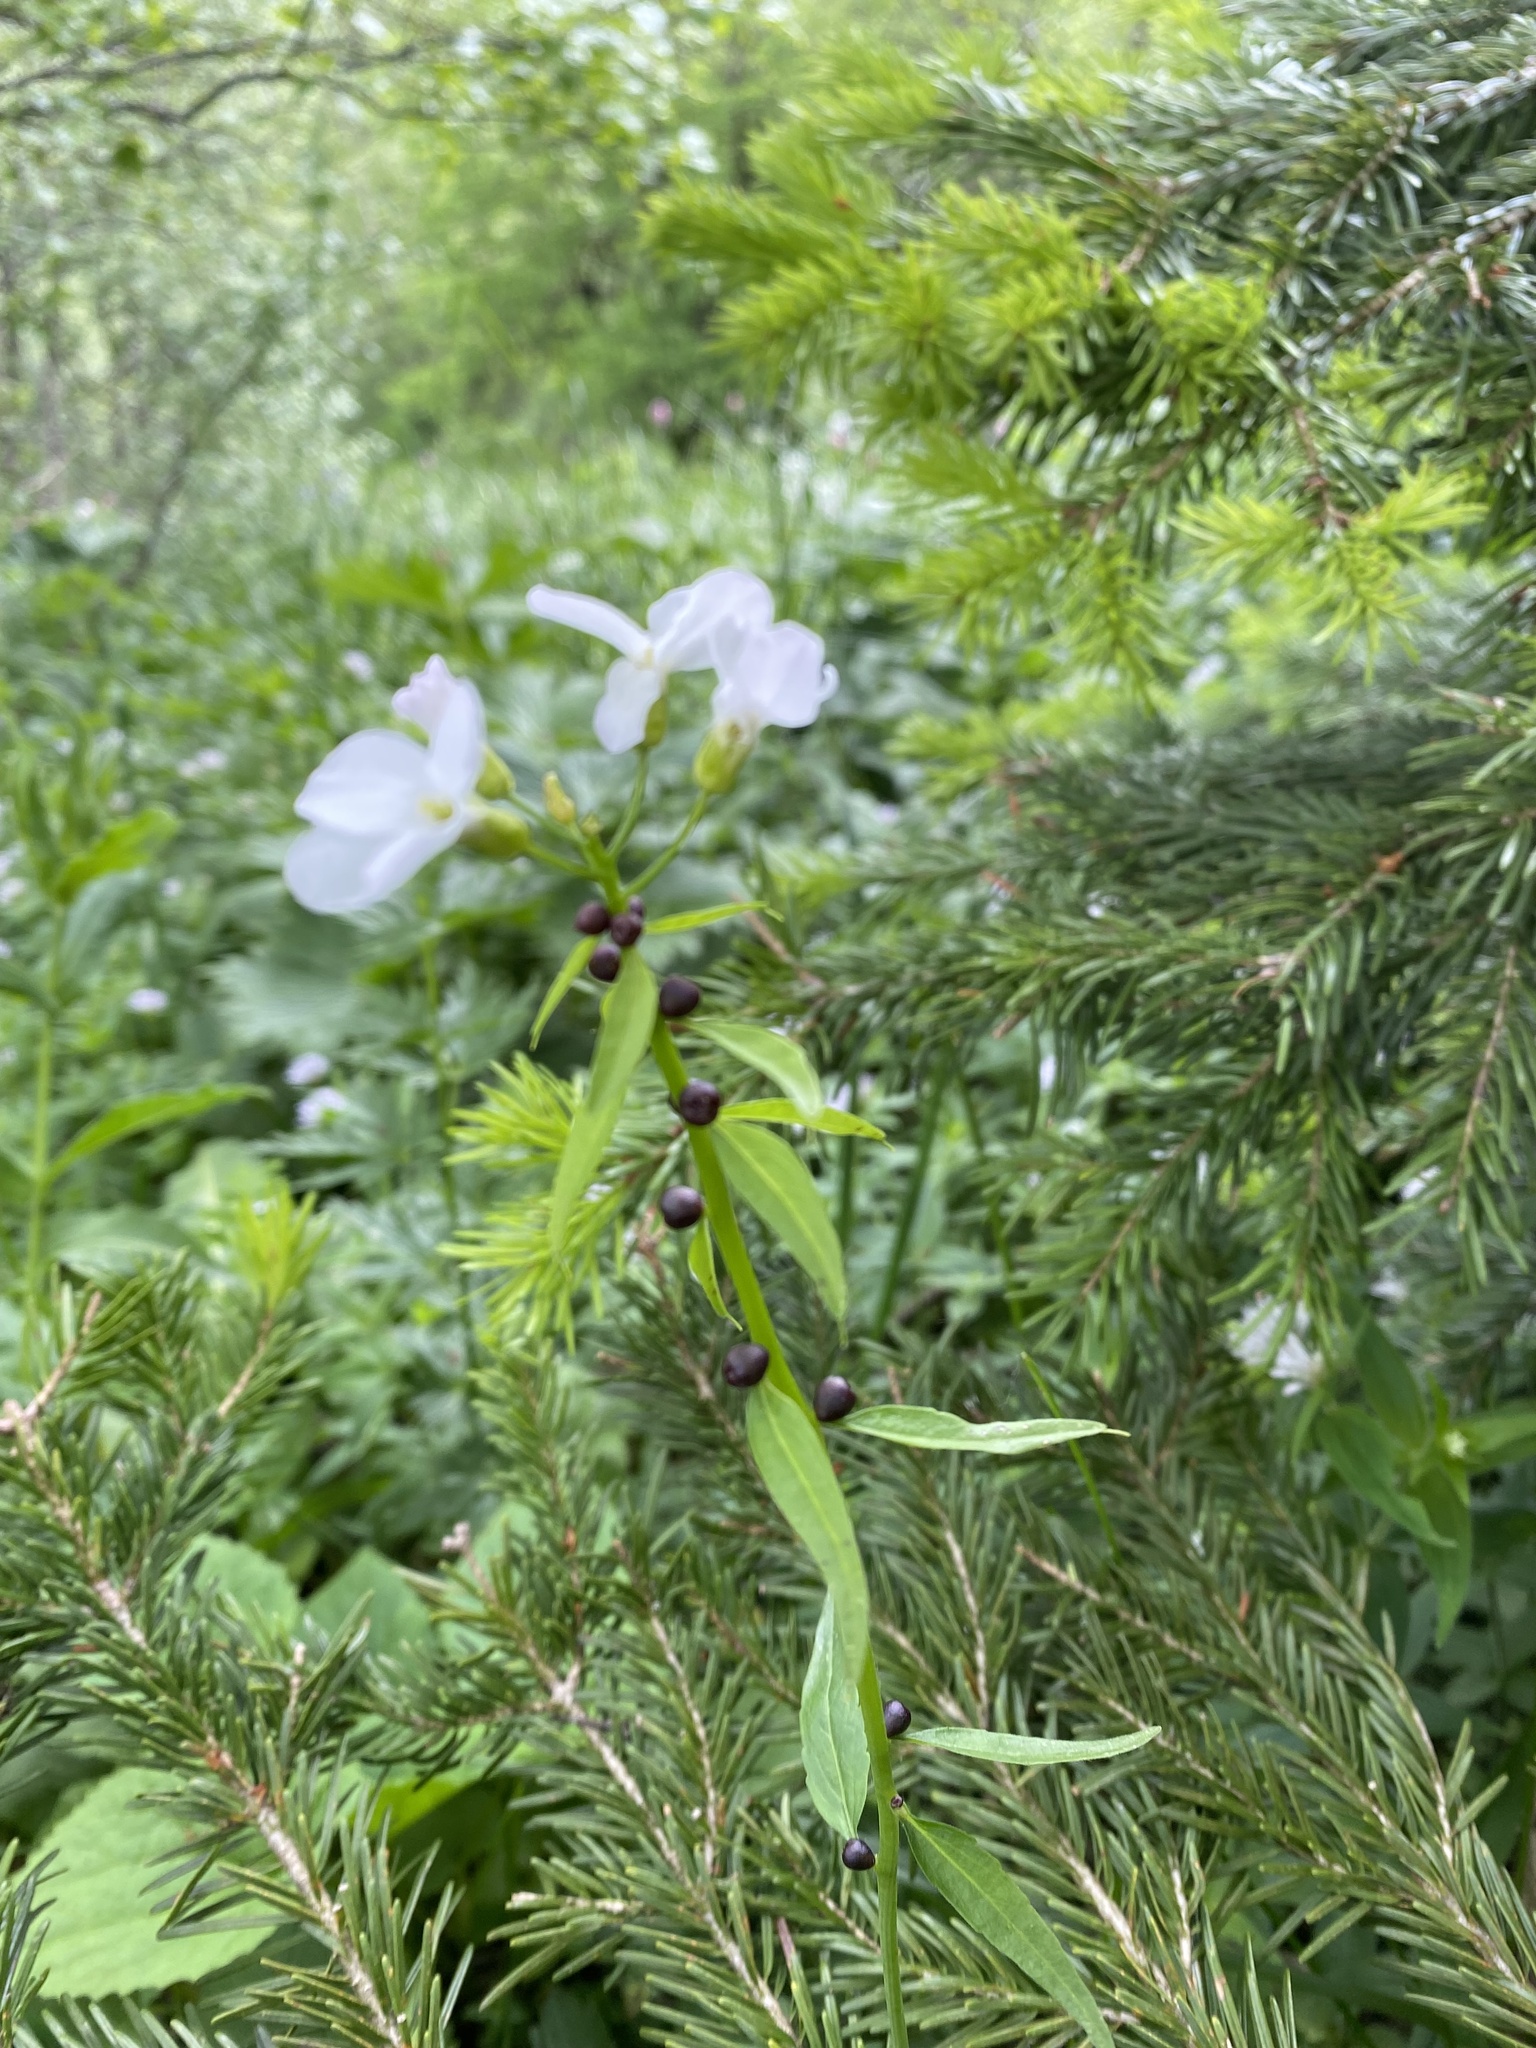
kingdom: Plantae
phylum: Tracheophyta
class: Magnoliopsida
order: Brassicales
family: Brassicaceae
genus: Cardamine
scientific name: Cardamine bulbifera
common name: Coralroot bittercress
